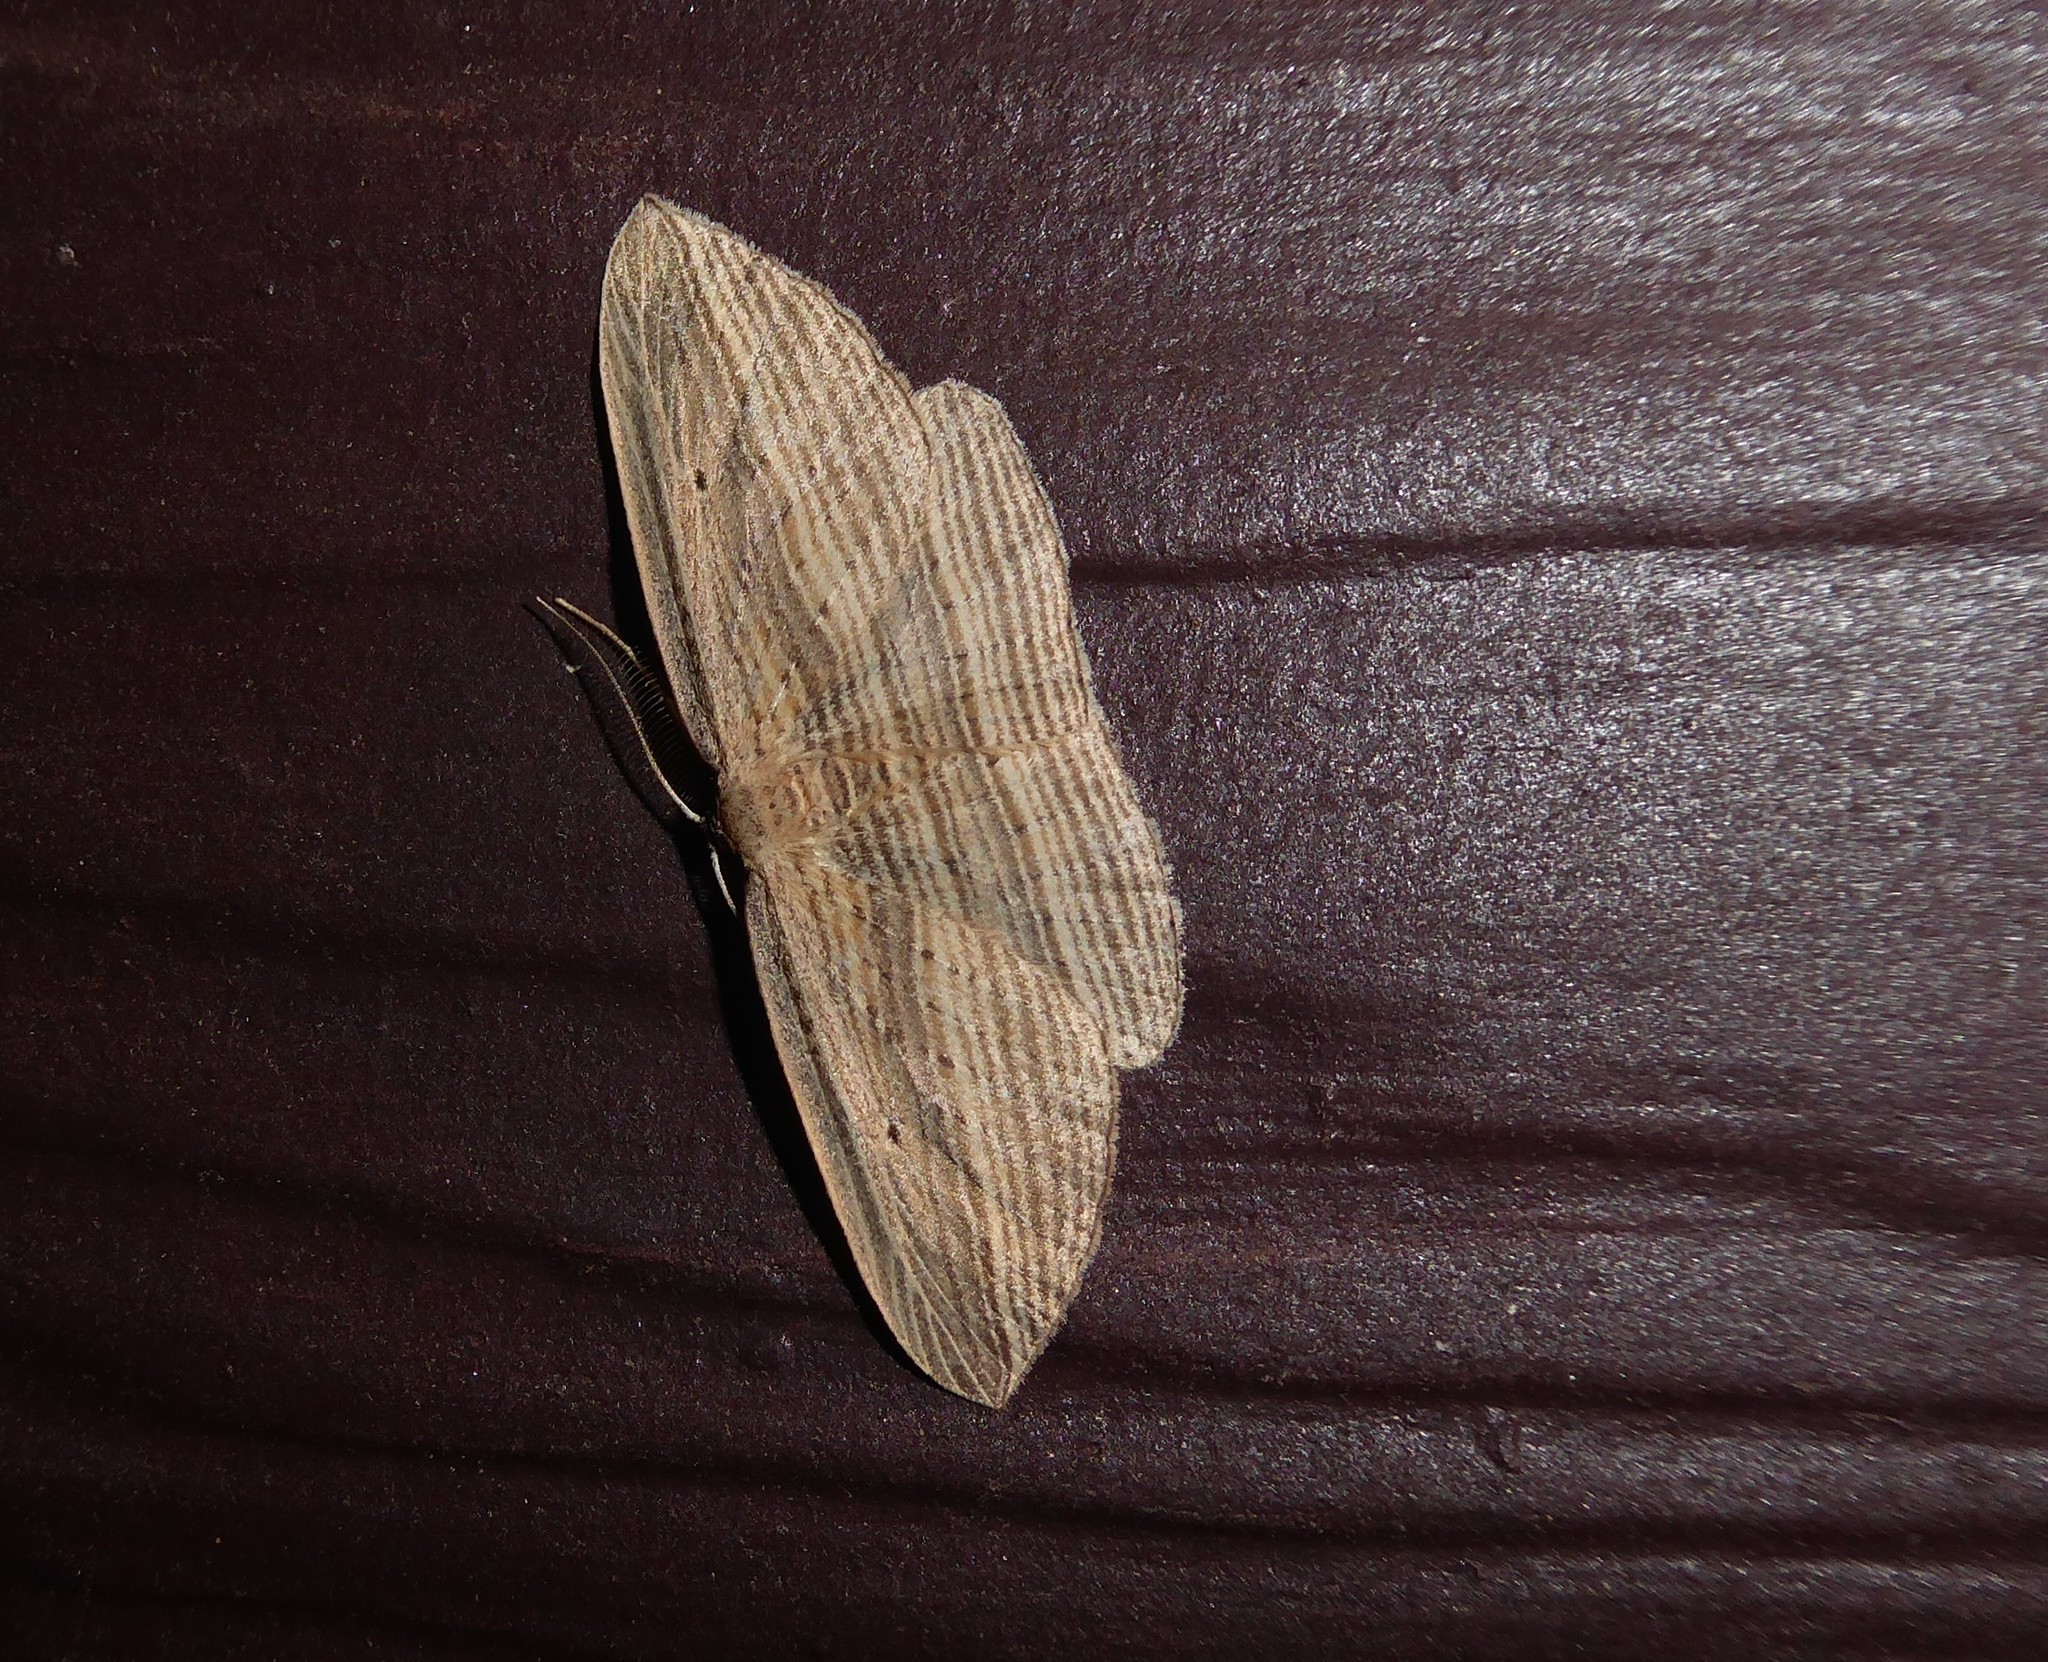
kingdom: Animalia
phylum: Arthropoda
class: Insecta
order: Lepidoptera
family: Geometridae
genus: Epiphryne
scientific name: Epiphryne verriculata
